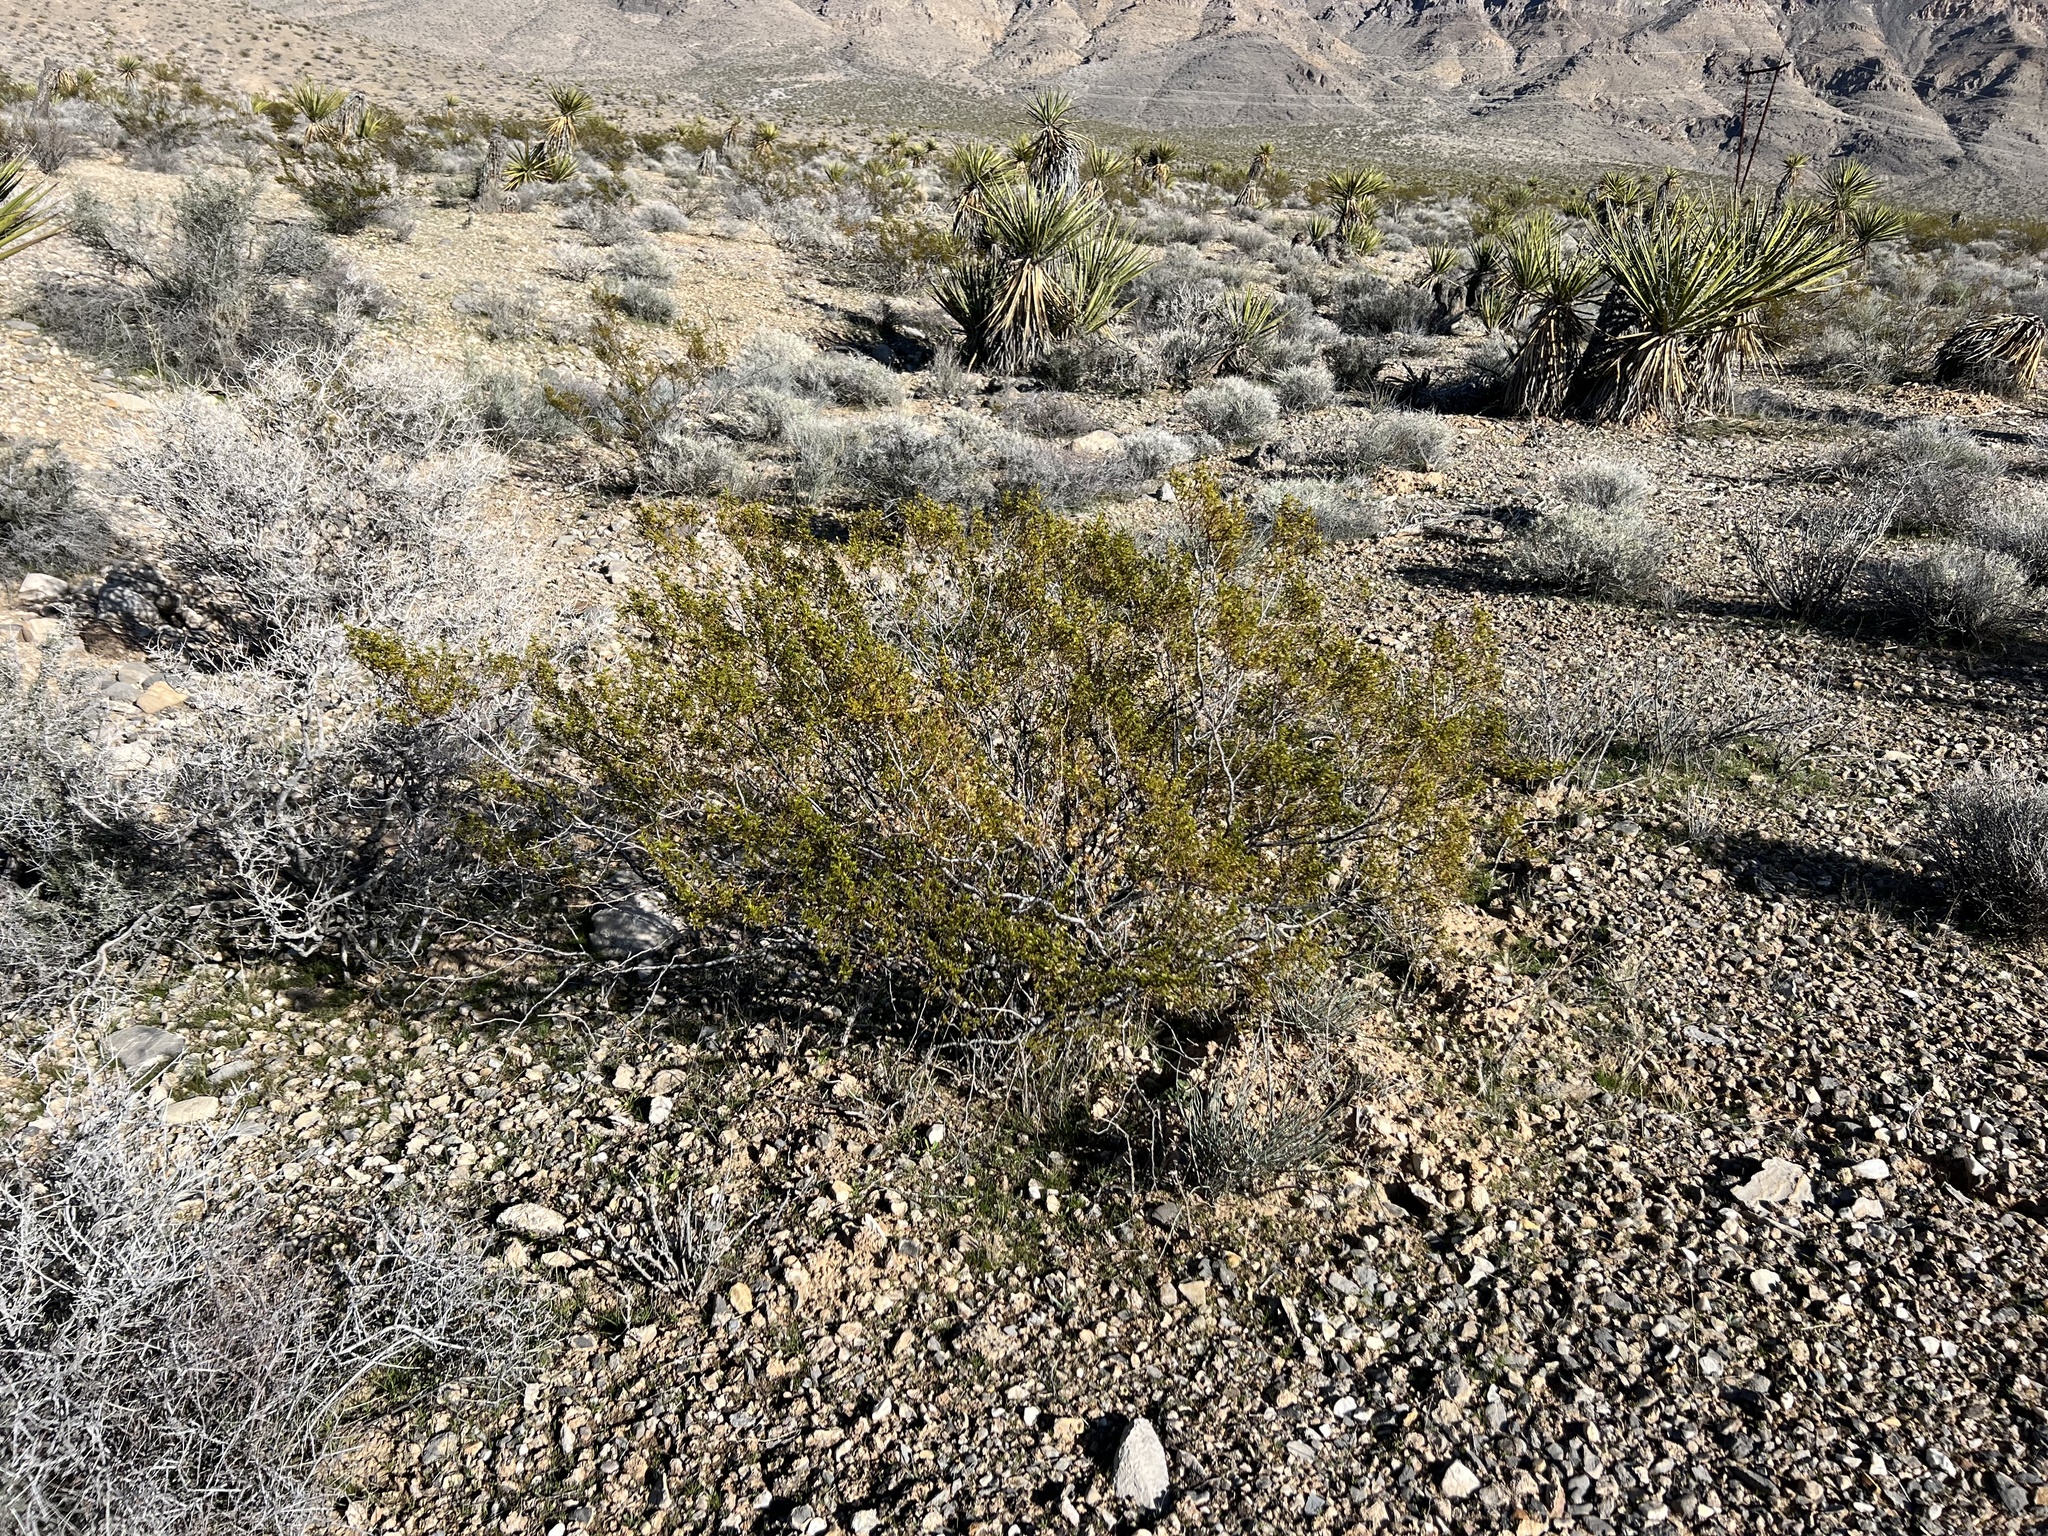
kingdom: Plantae
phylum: Tracheophyta
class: Magnoliopsida
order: Zygophyllales
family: Zygophyllaceae
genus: Larrea
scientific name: Larrea tridentata
